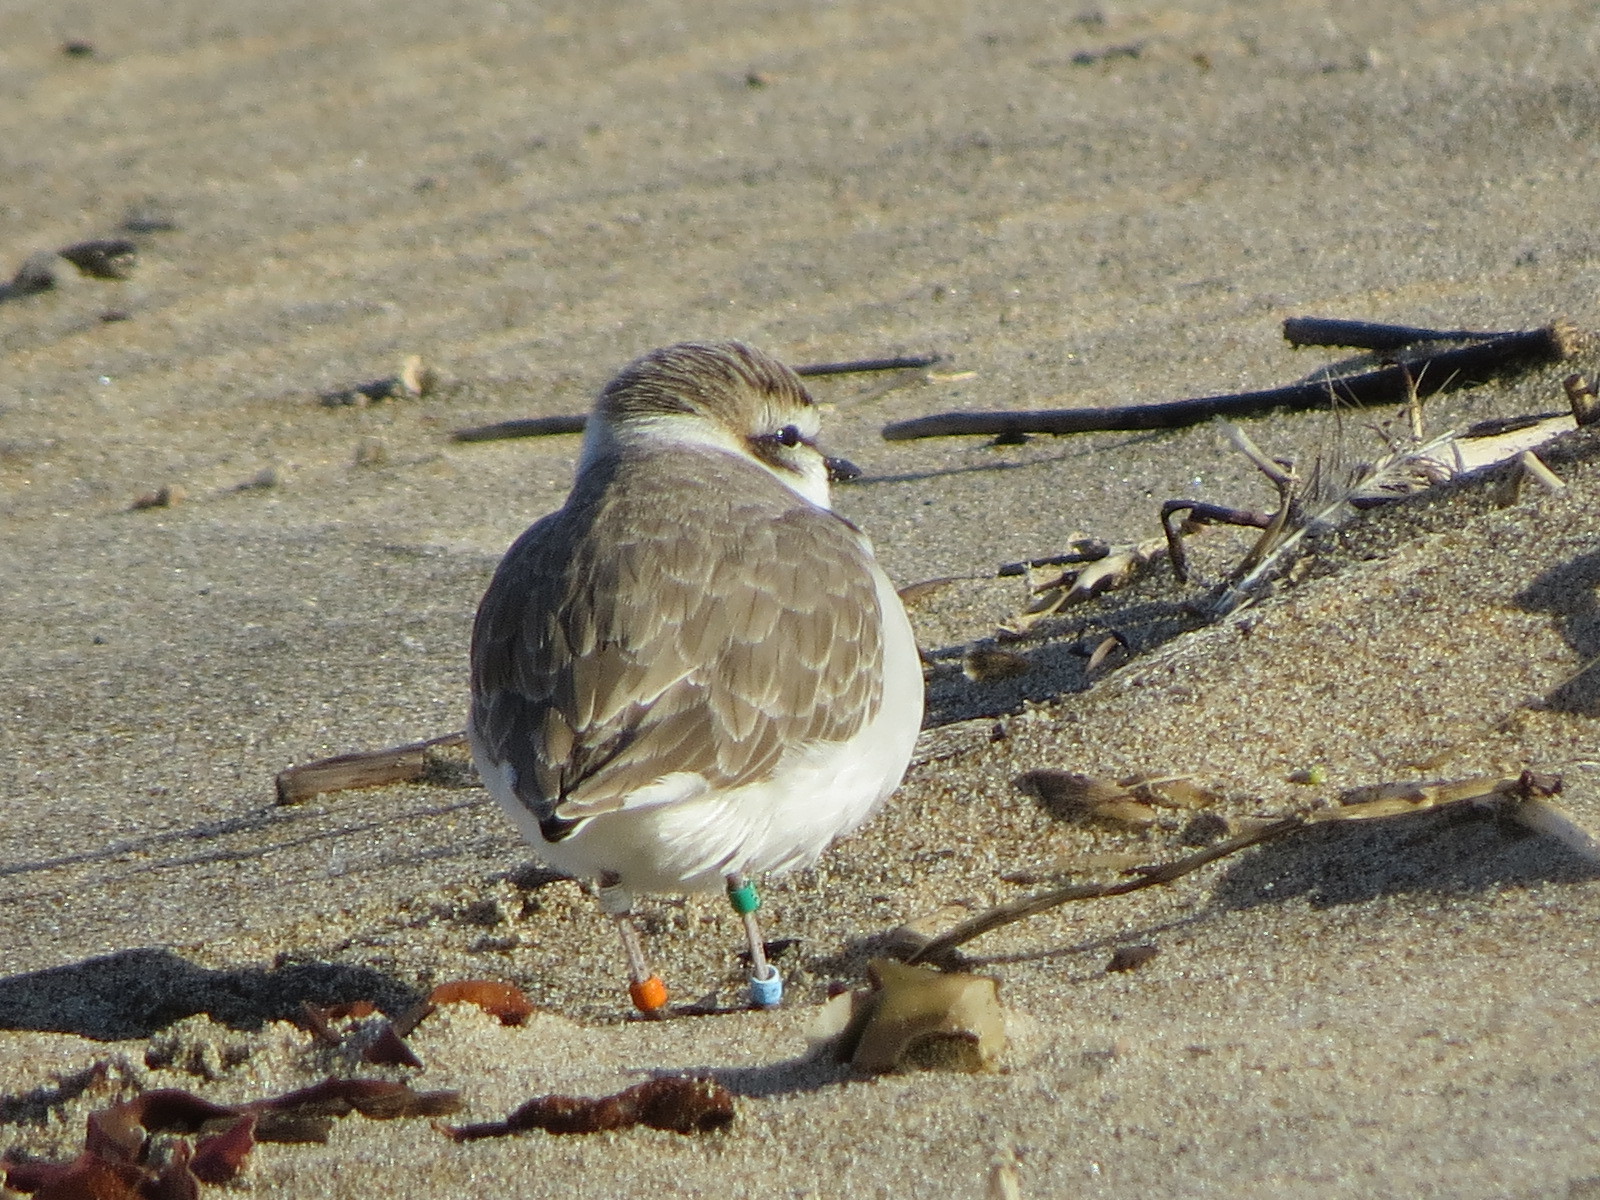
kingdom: Animalia
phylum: Chordata
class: Aves
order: Charadriiformes
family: Charadriidae
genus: Anarhynchus
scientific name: Anarhynchus
